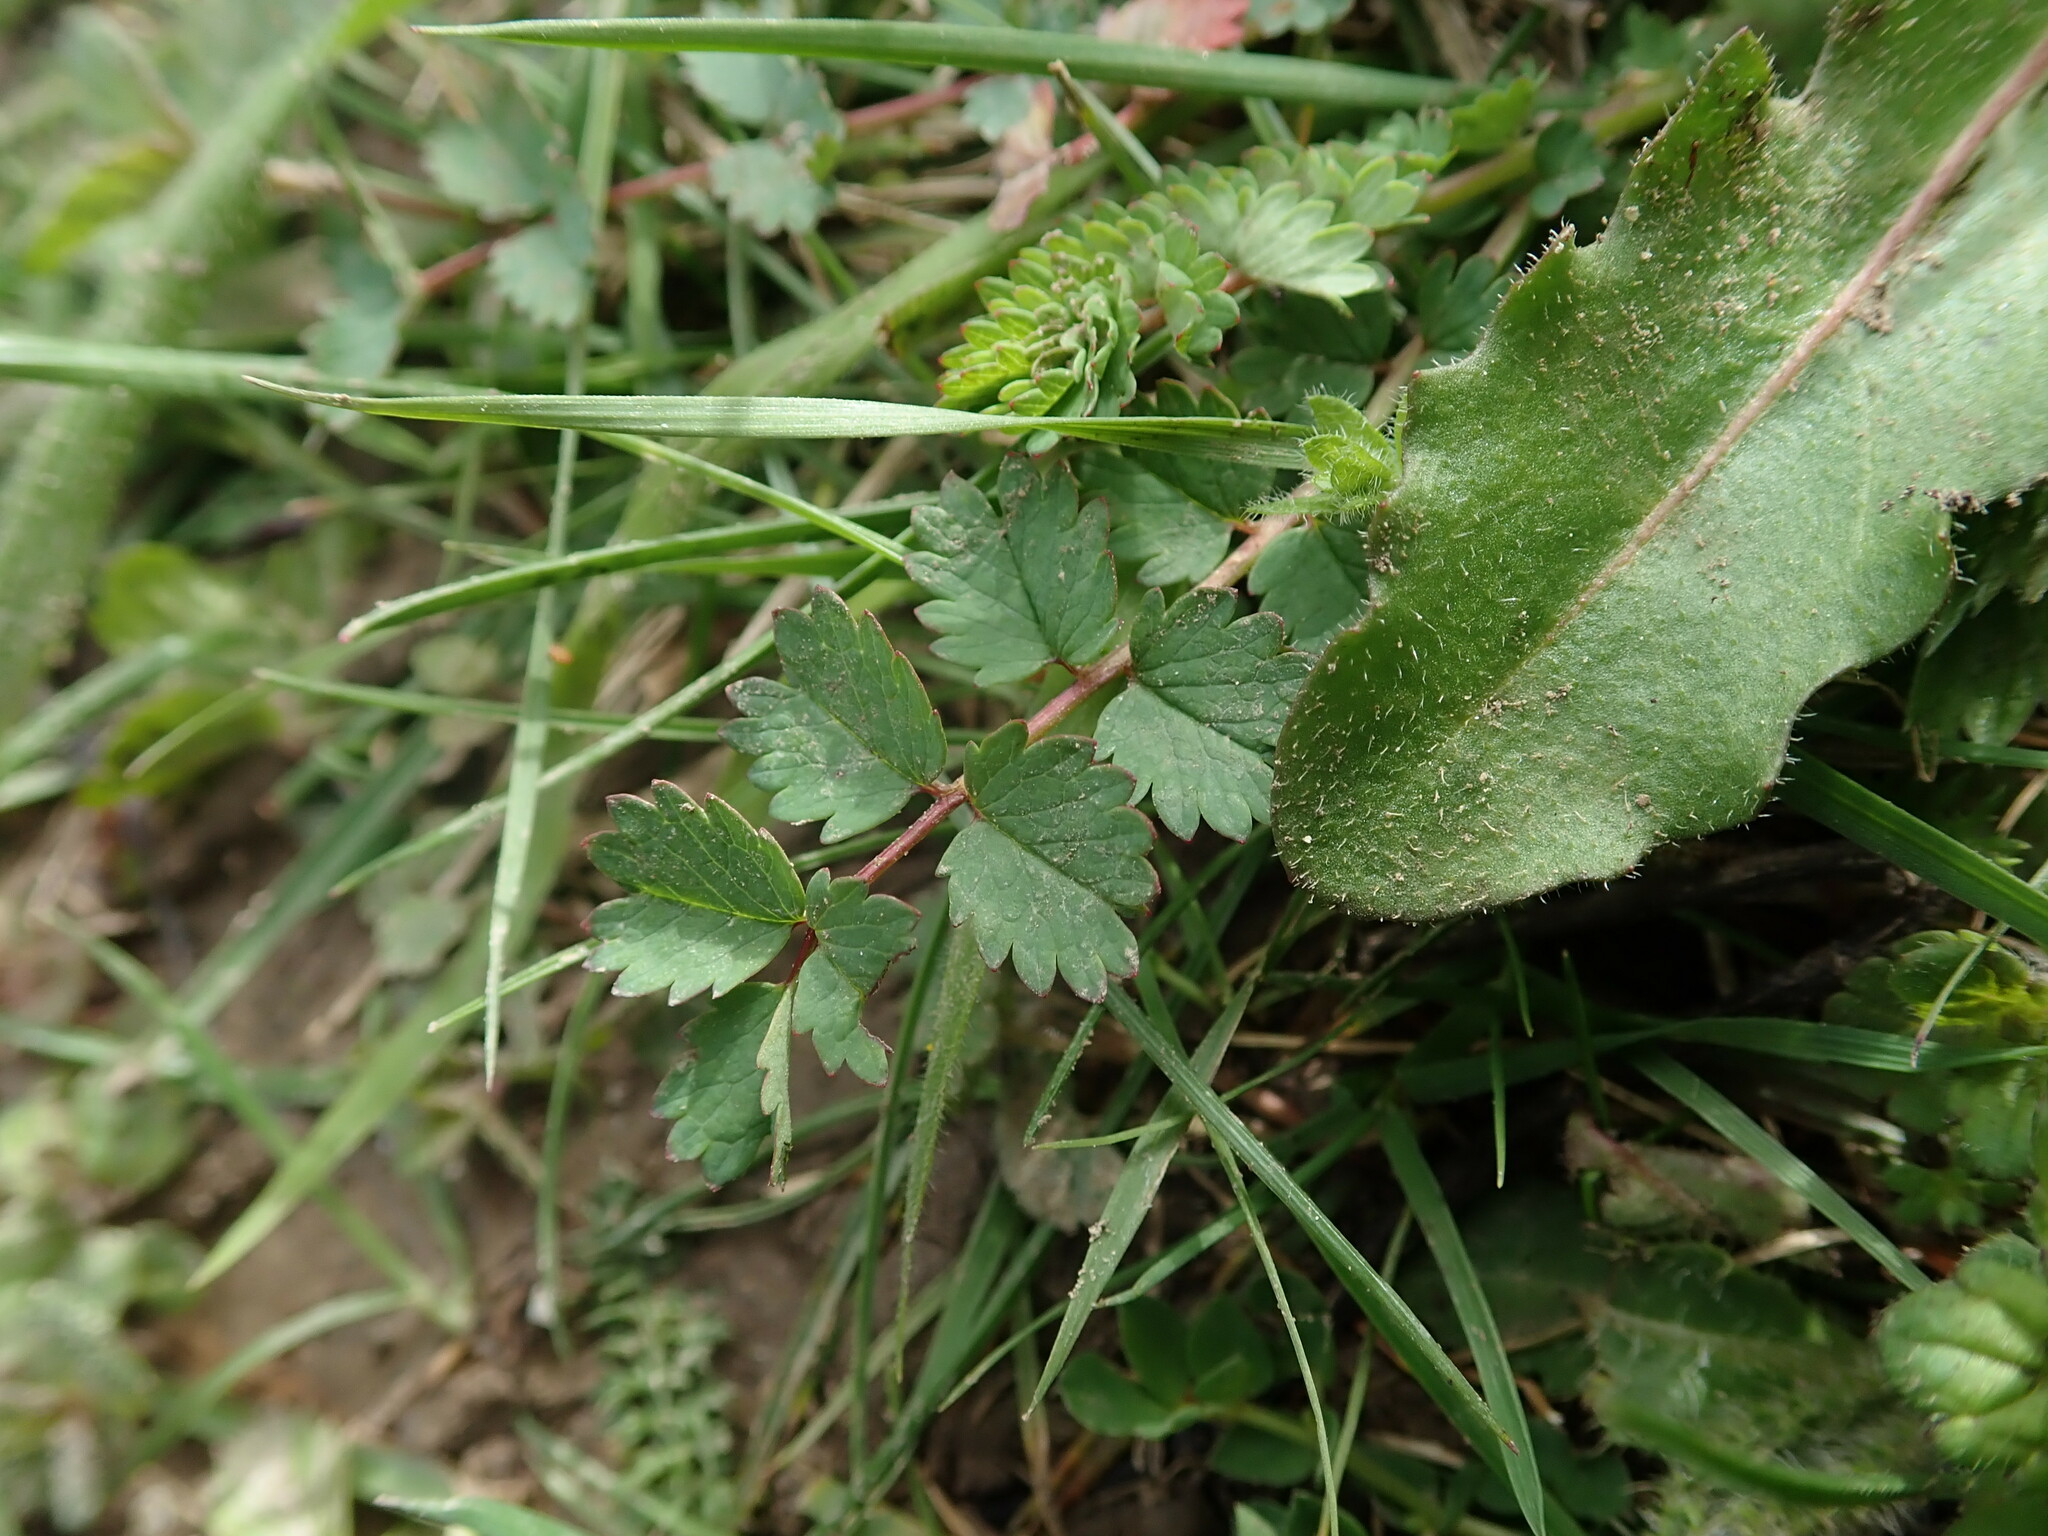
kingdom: Plantae
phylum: Tracheophyta
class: Magnoliopsida
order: Rosales
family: Rosaceae
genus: Poterium
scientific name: Poterium sanguisorba
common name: Salad burnet
